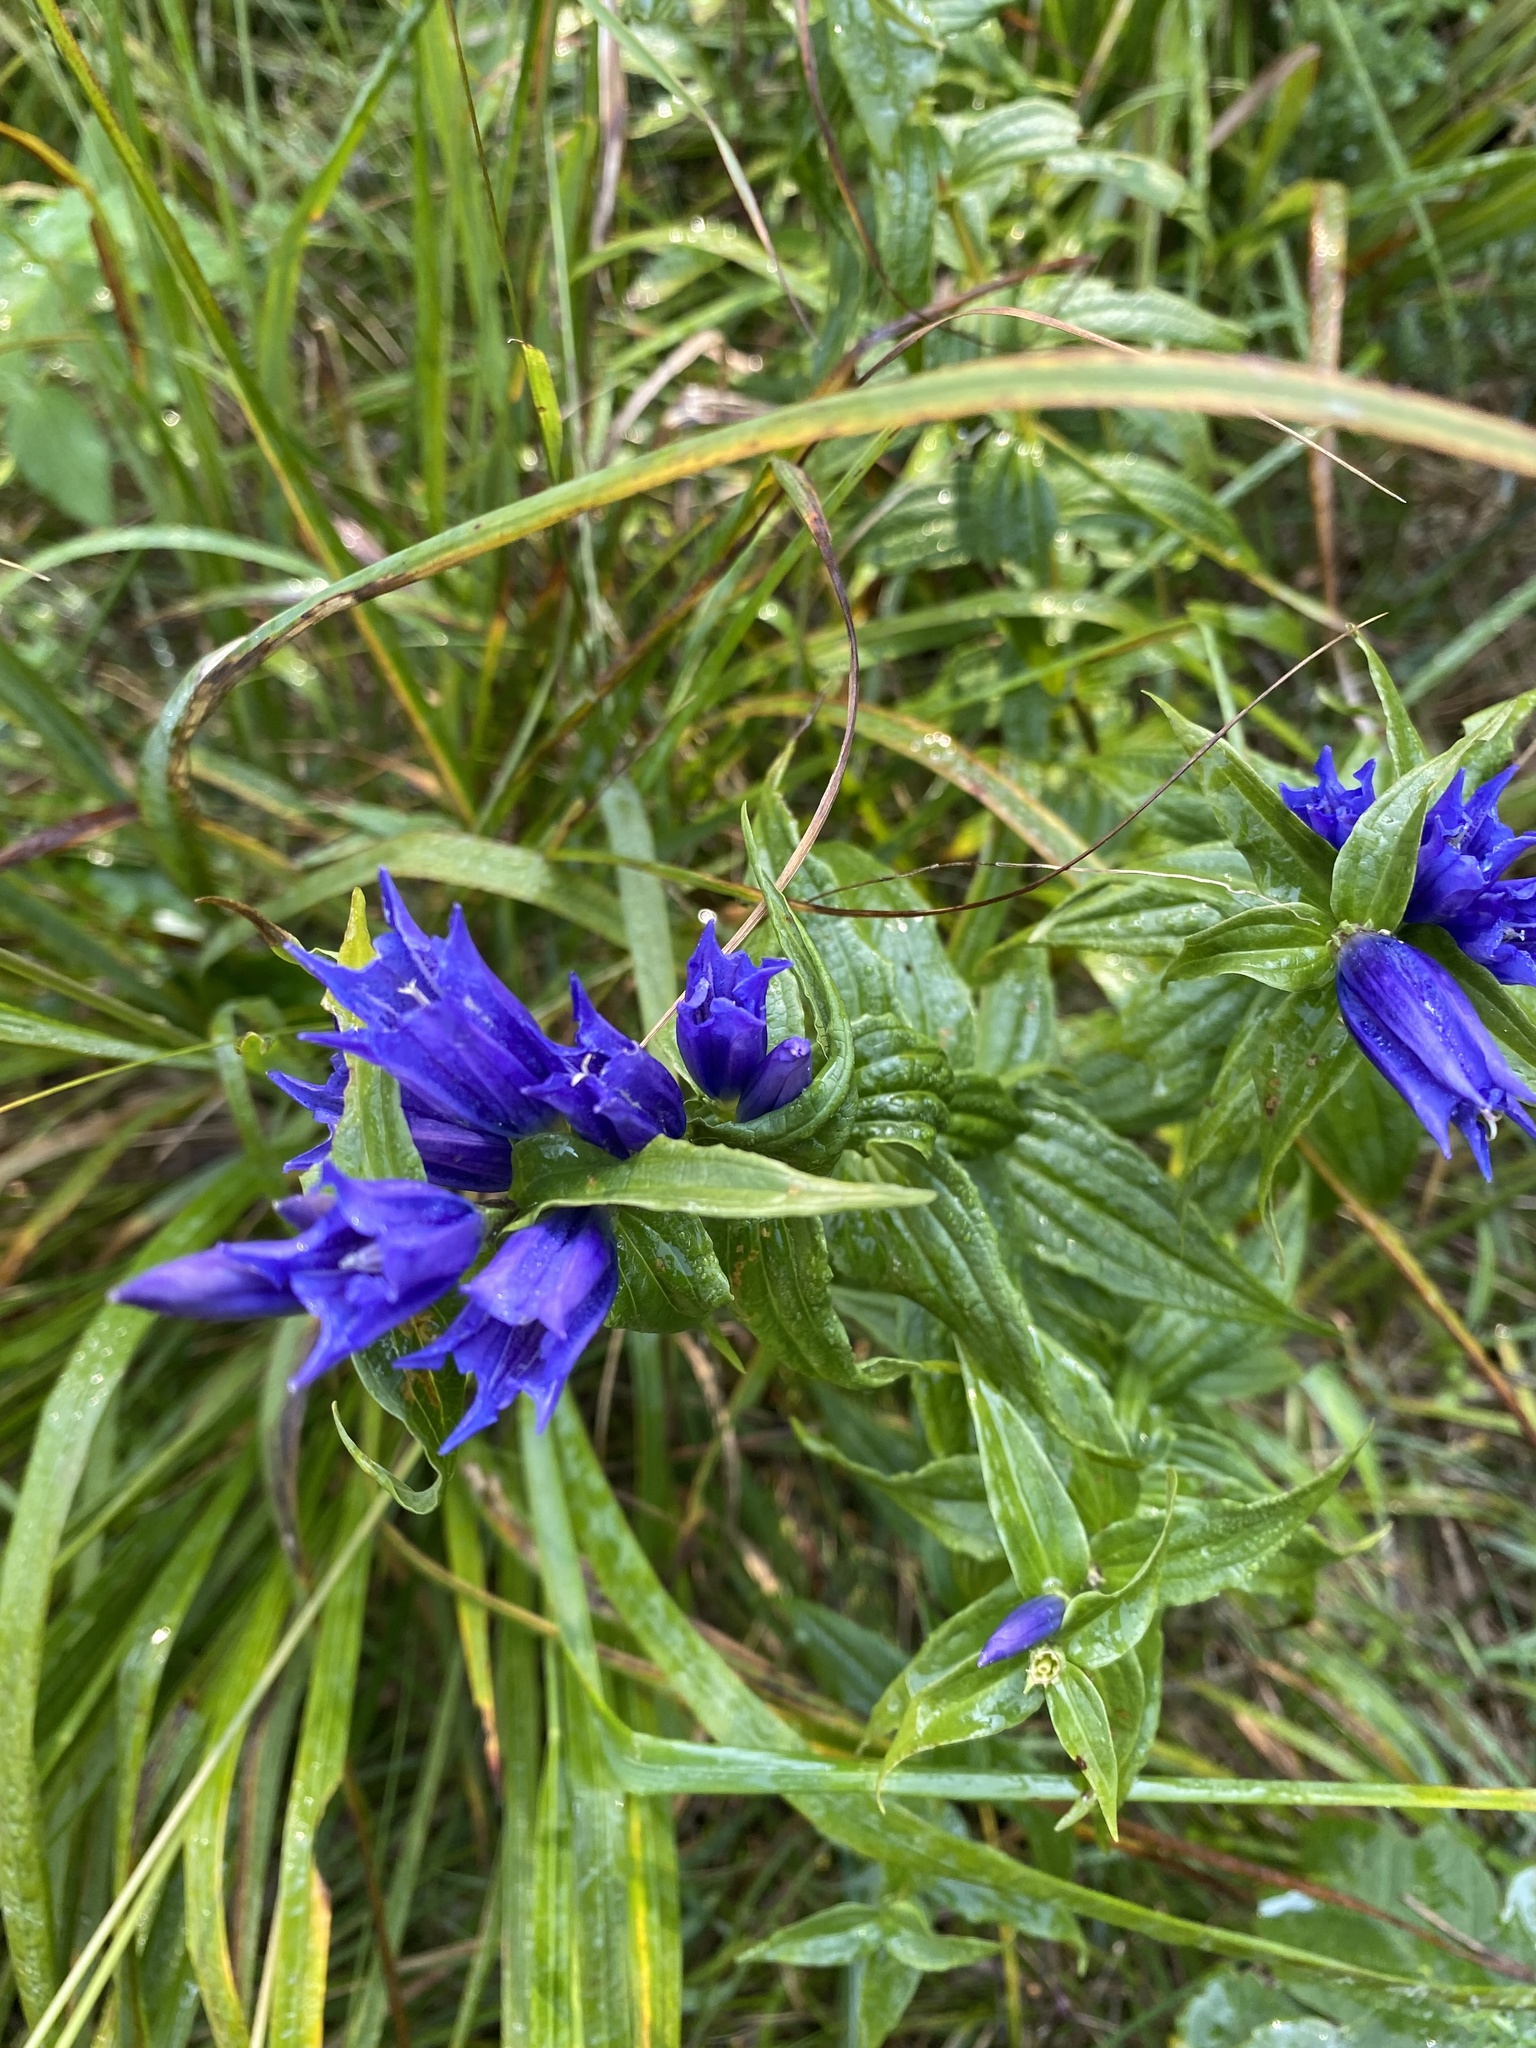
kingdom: Plantae
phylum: Tracheophyta
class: Magnoliopsida
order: Gentianales
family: Gentianaceae
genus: Gentiana
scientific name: Gentiana asclepiadea
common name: Willow gentian
